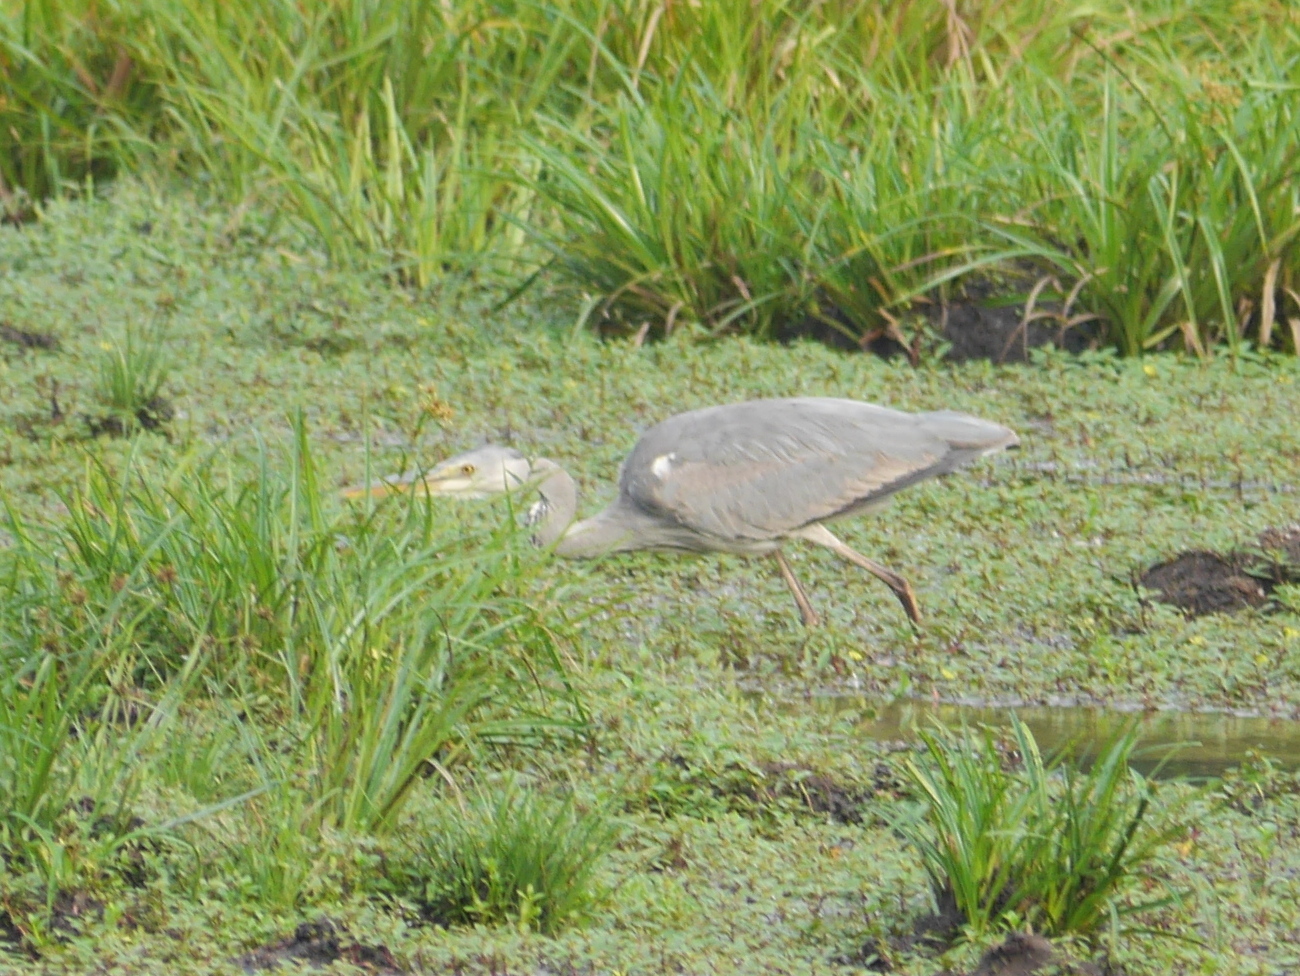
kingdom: Animalia
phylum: Chordata
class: Aves
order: Pelecaniformes
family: Ardeidae
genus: Ardea
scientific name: Ardea cinerea
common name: Grey heron
